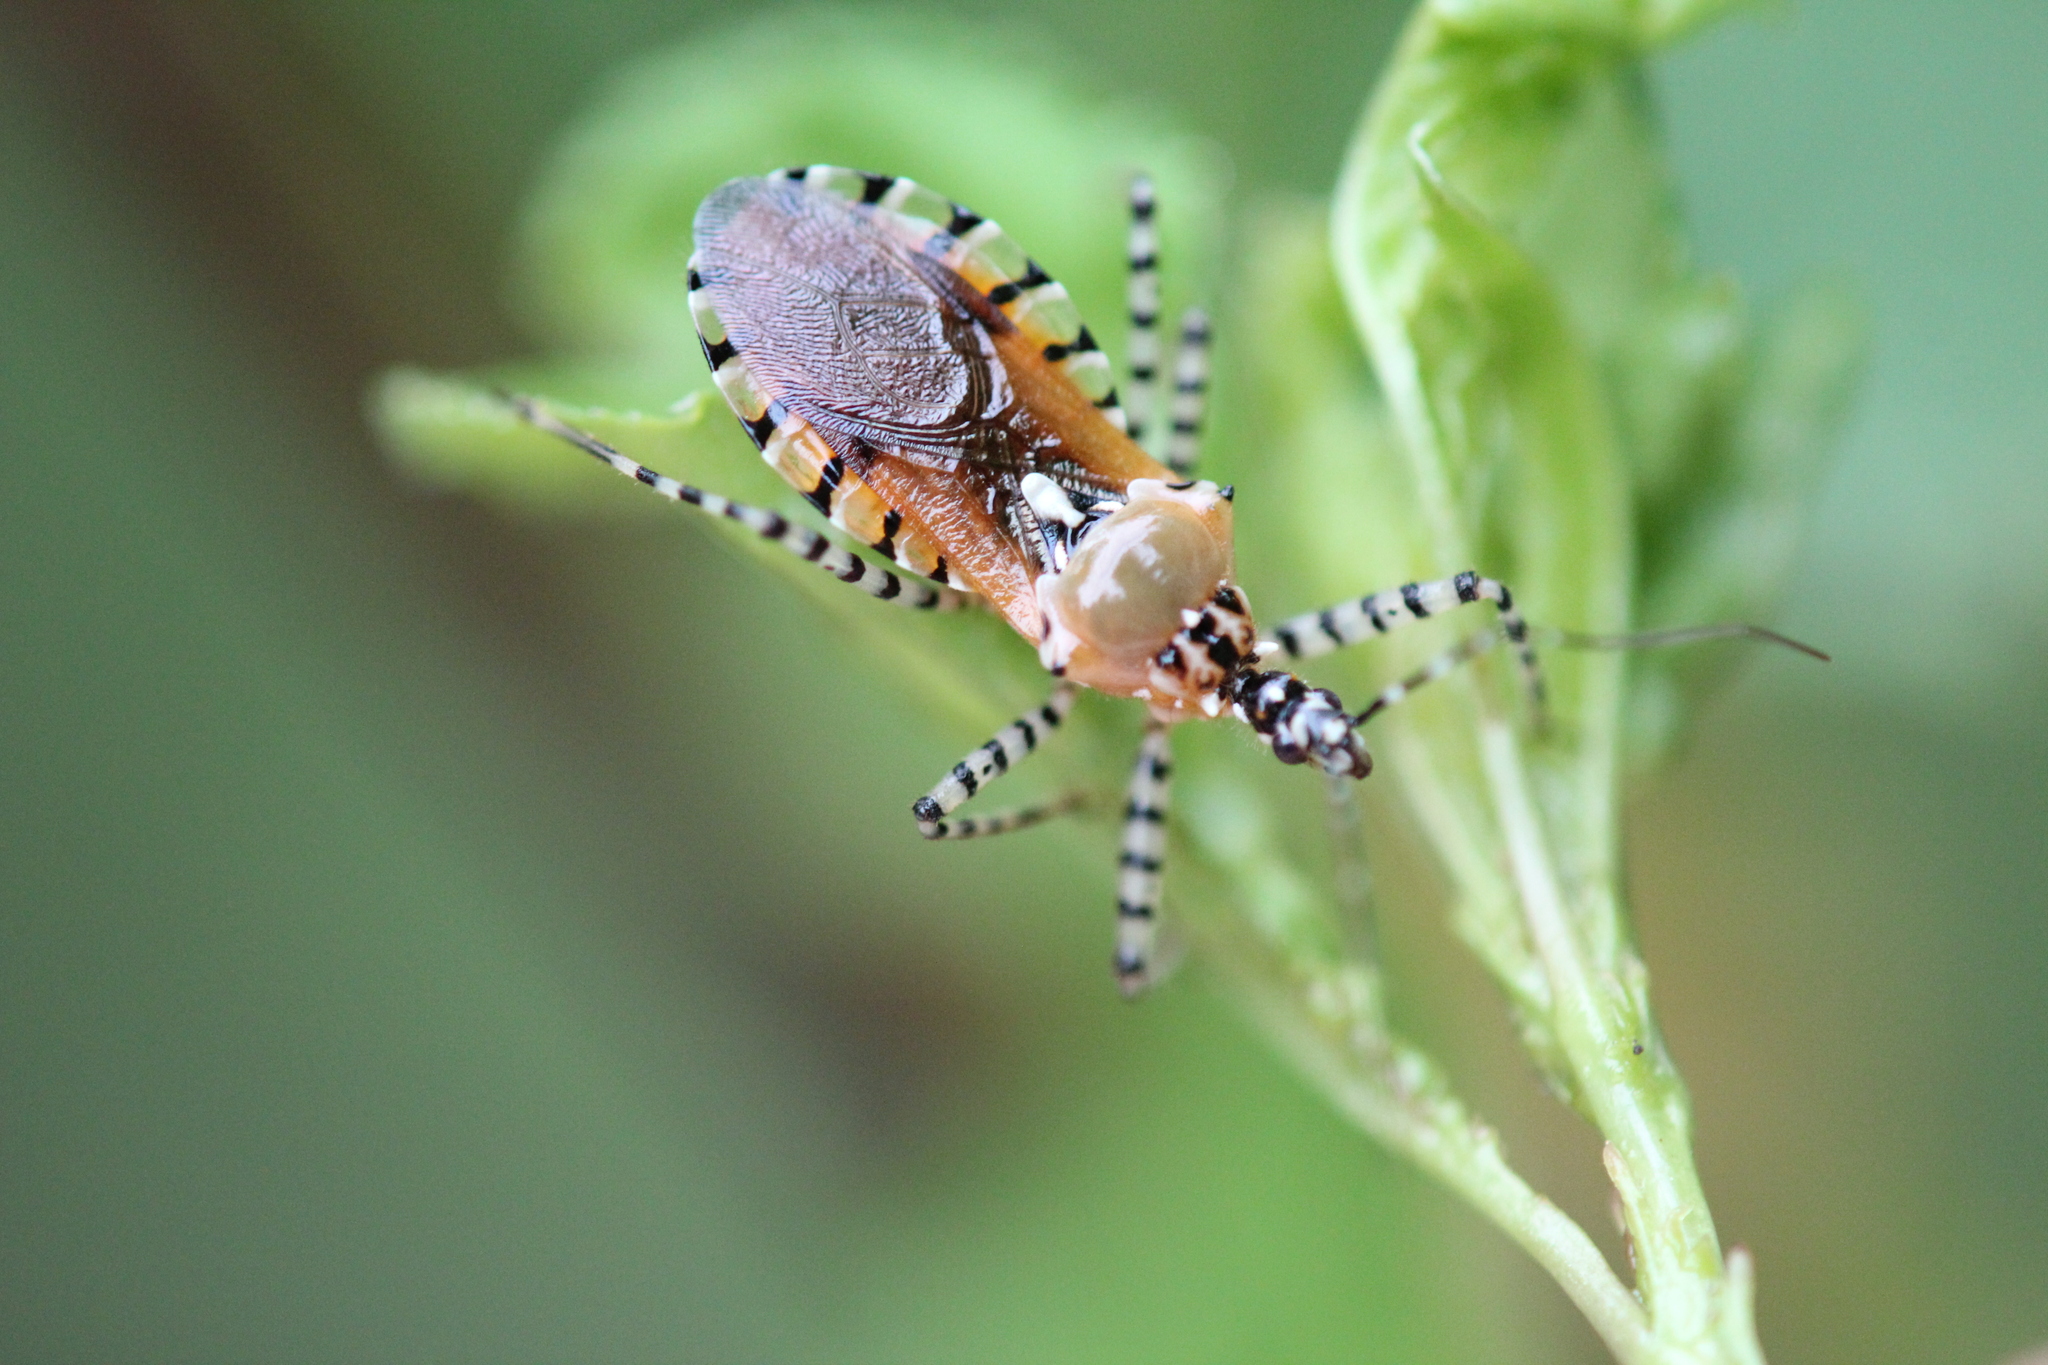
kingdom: Animalia
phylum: Arthropoda
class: Insecta
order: Hemiptera
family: Reduviidae
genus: Pselliopus
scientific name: Pselliopus cinctus
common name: Ringed assassin bug
